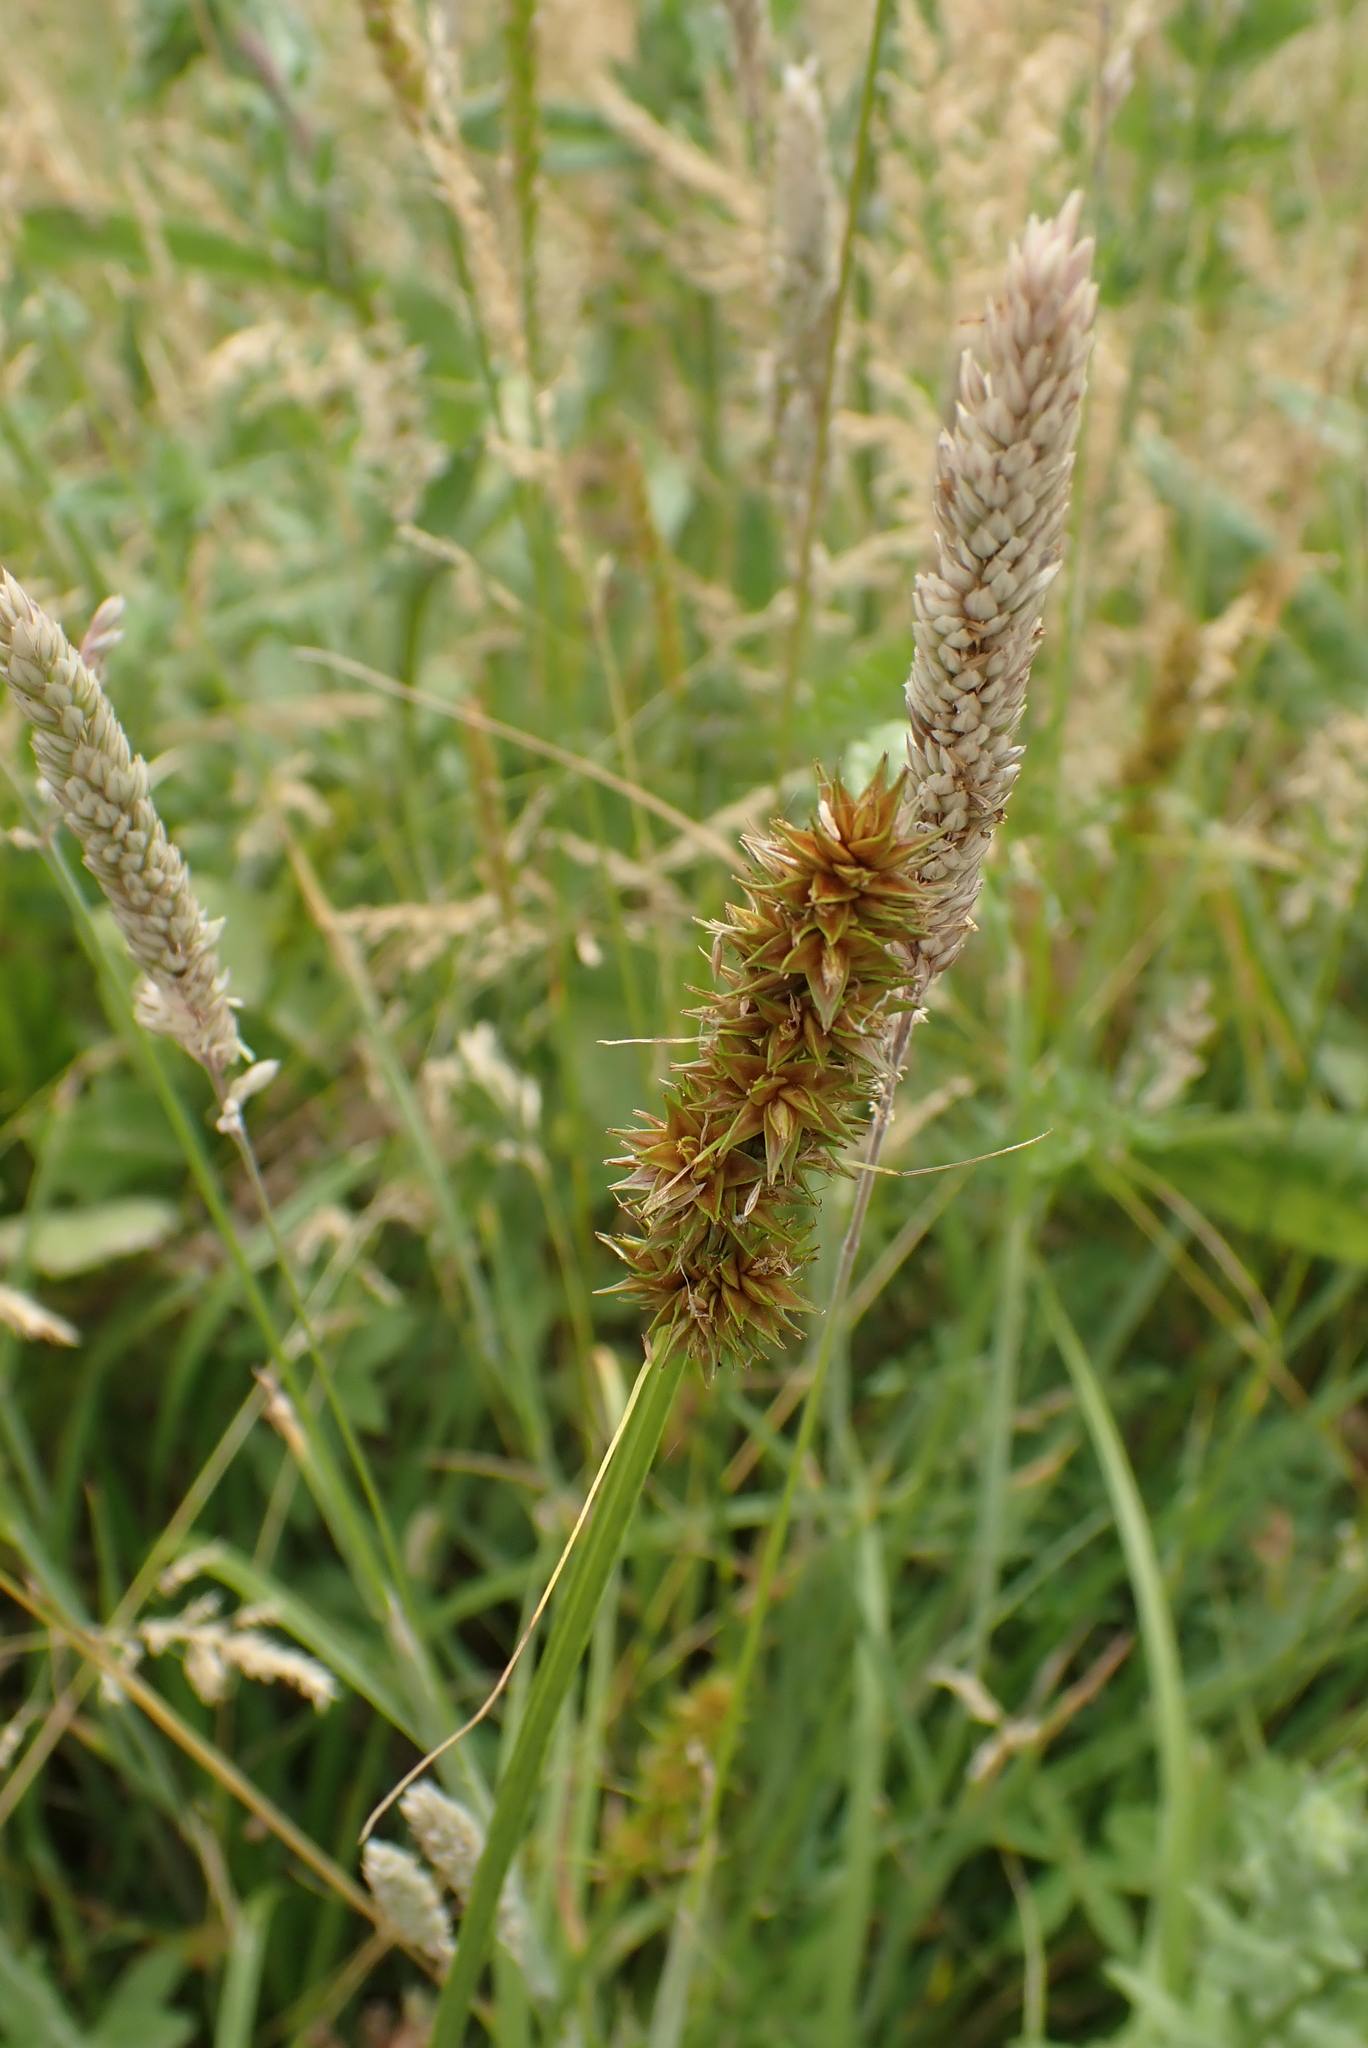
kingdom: Plantae
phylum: Tracheophyta
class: Liliopsida
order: Poales
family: Cyperaceae
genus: Carex
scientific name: Carex otrubae
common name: False fox-sedge
